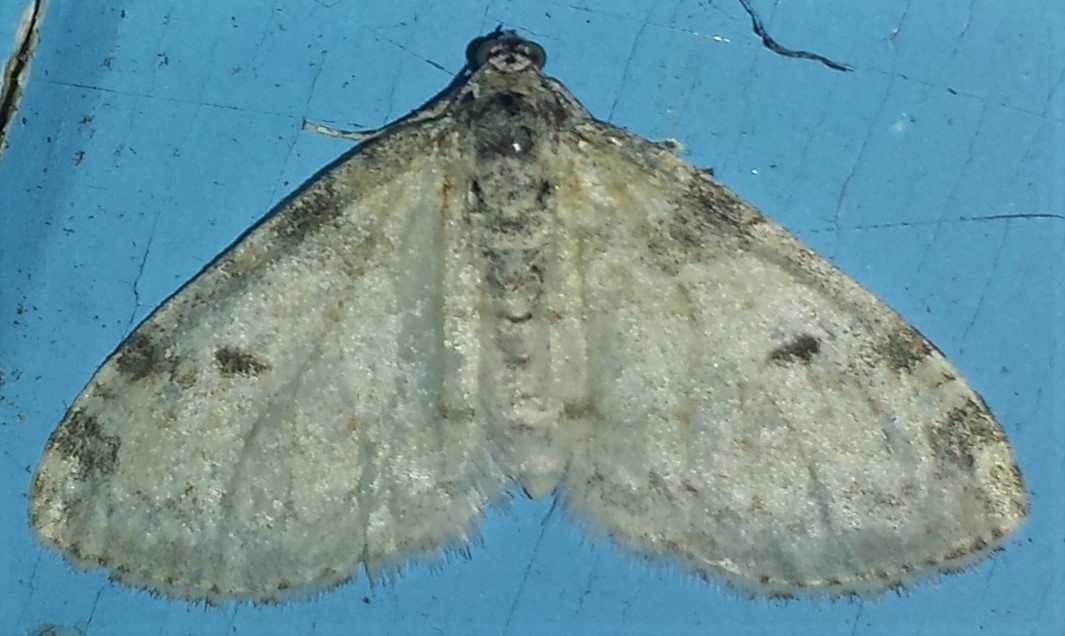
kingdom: Animalia
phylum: Arthropoda
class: Insecta
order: Lepidoptera
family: Geometridae
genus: Lobophora
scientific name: Lobophora nivigerata
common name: Powdered bigwing
